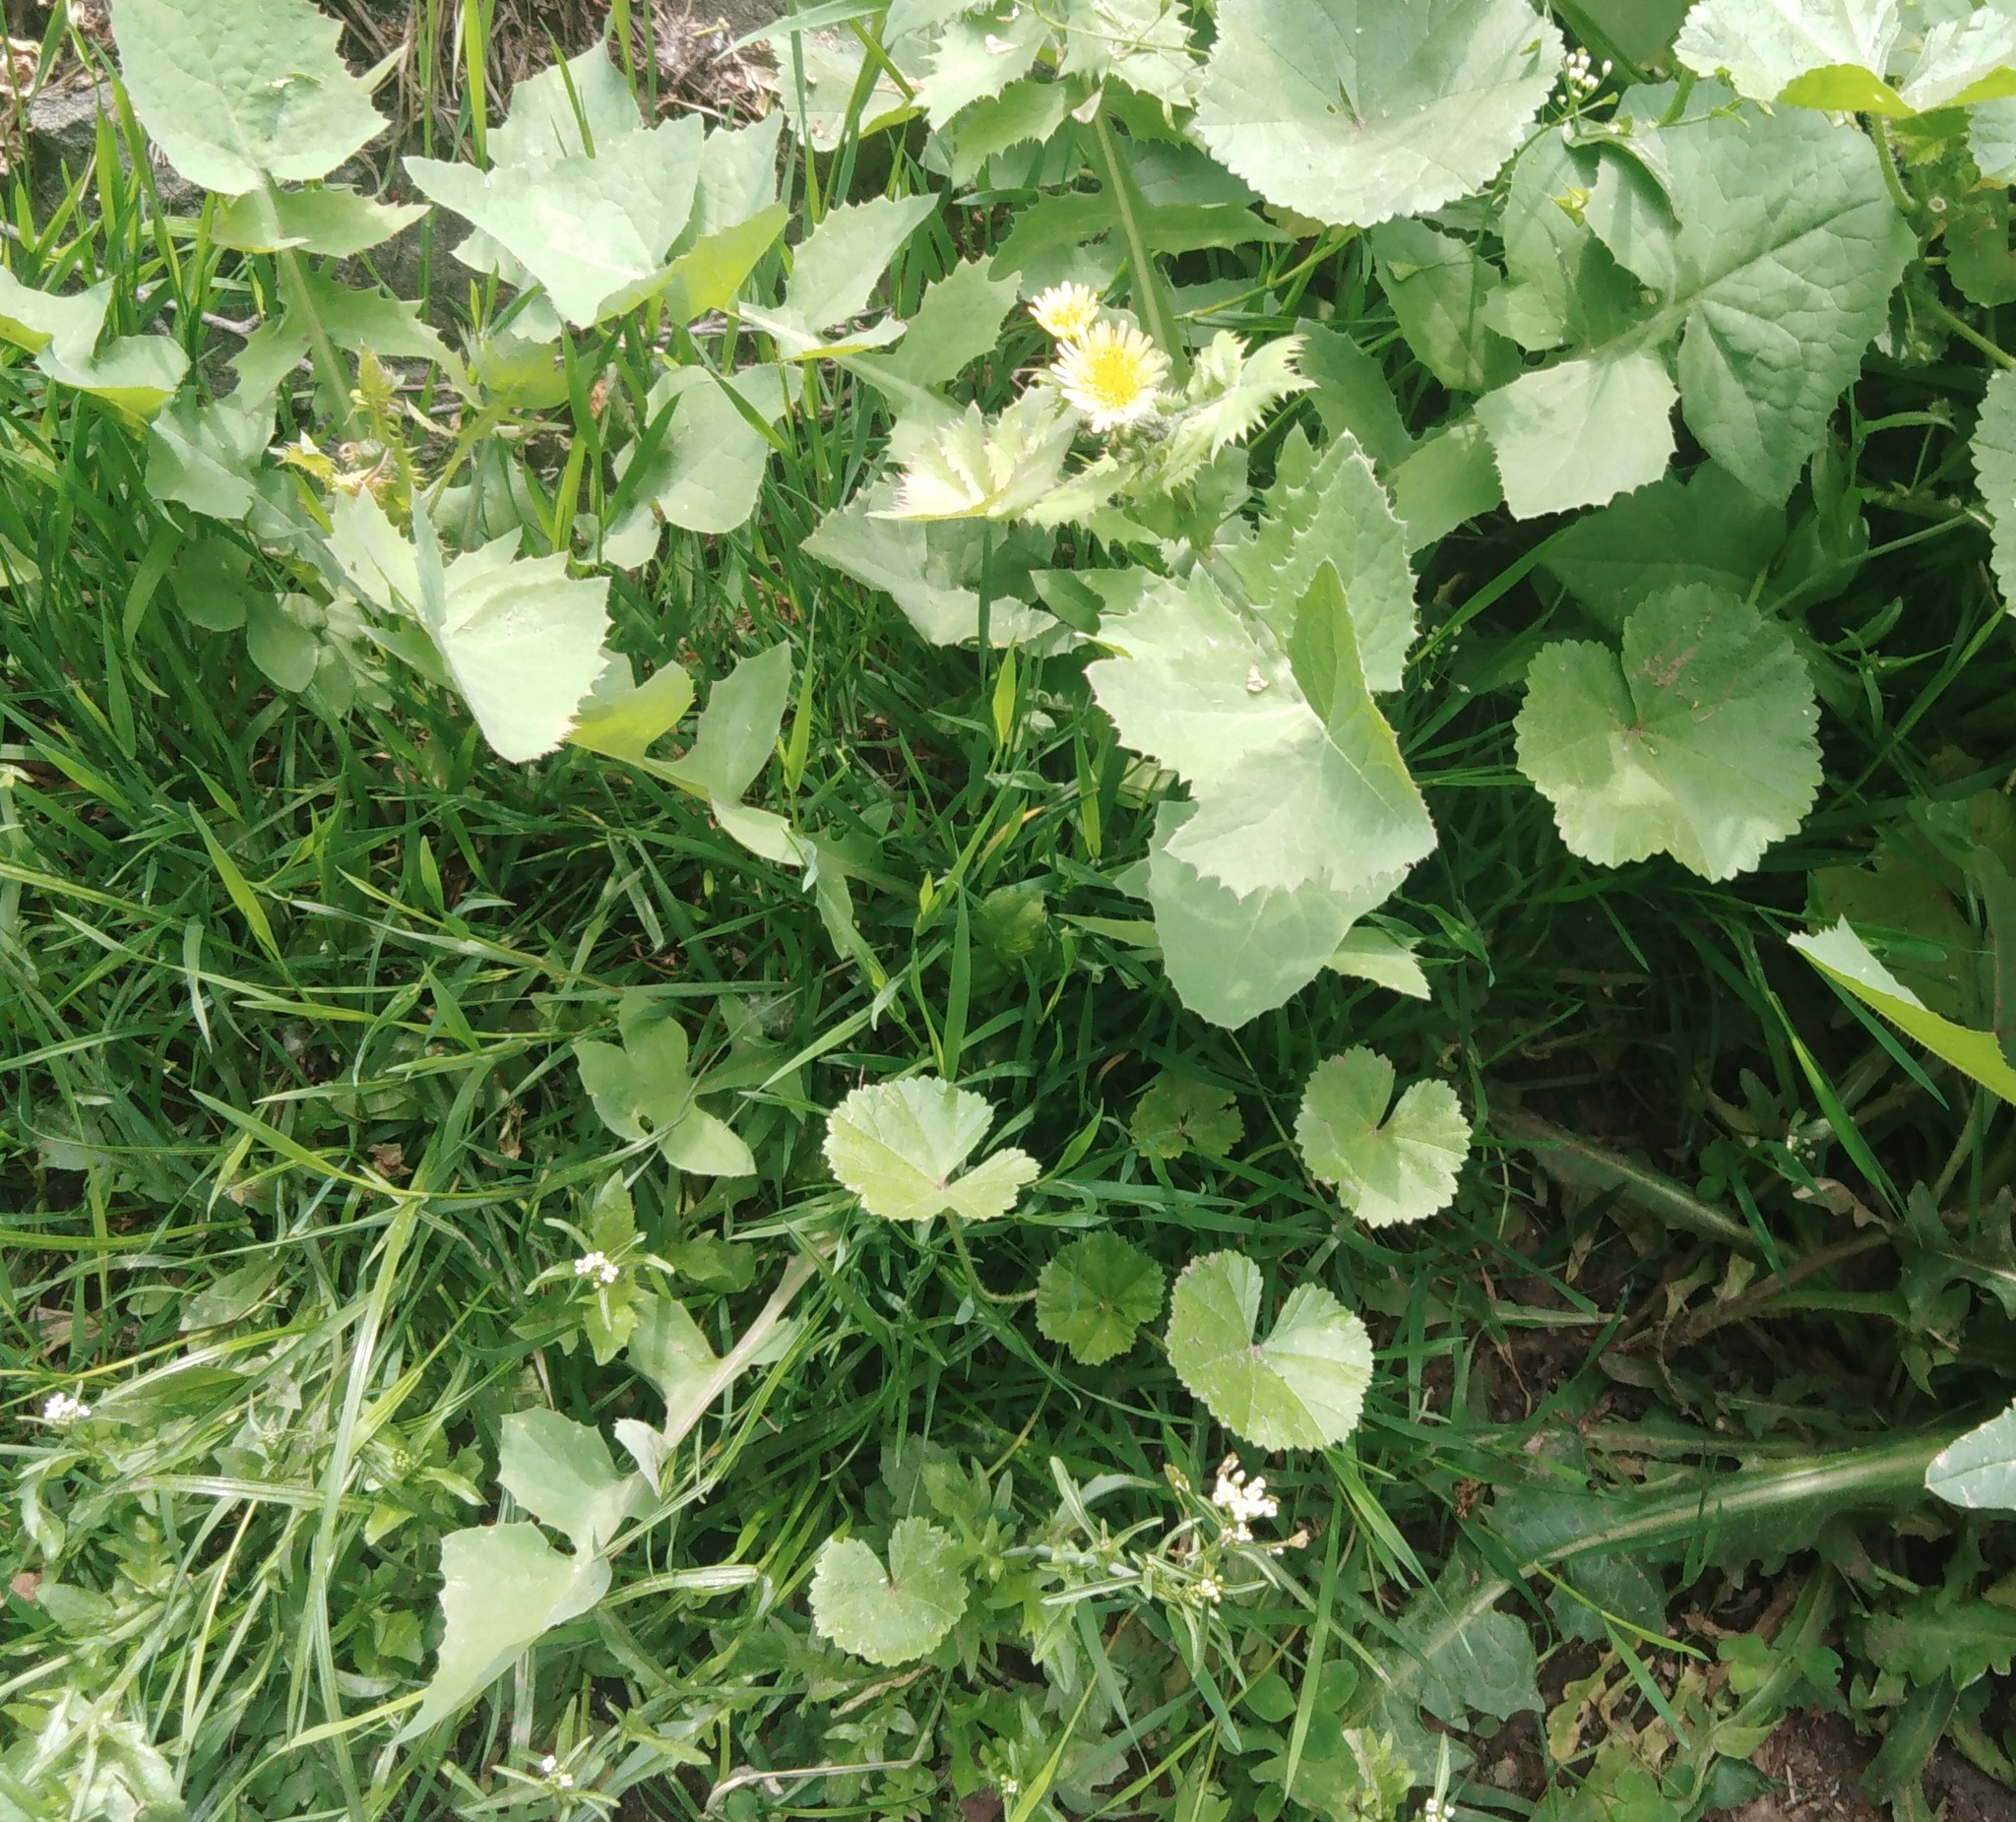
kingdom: Plantae
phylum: Tracheophyta
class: Magnoliopsida
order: Asterales
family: Asteraceae
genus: Sonchus
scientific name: Sonchus oleraceus
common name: Common sowthistle
